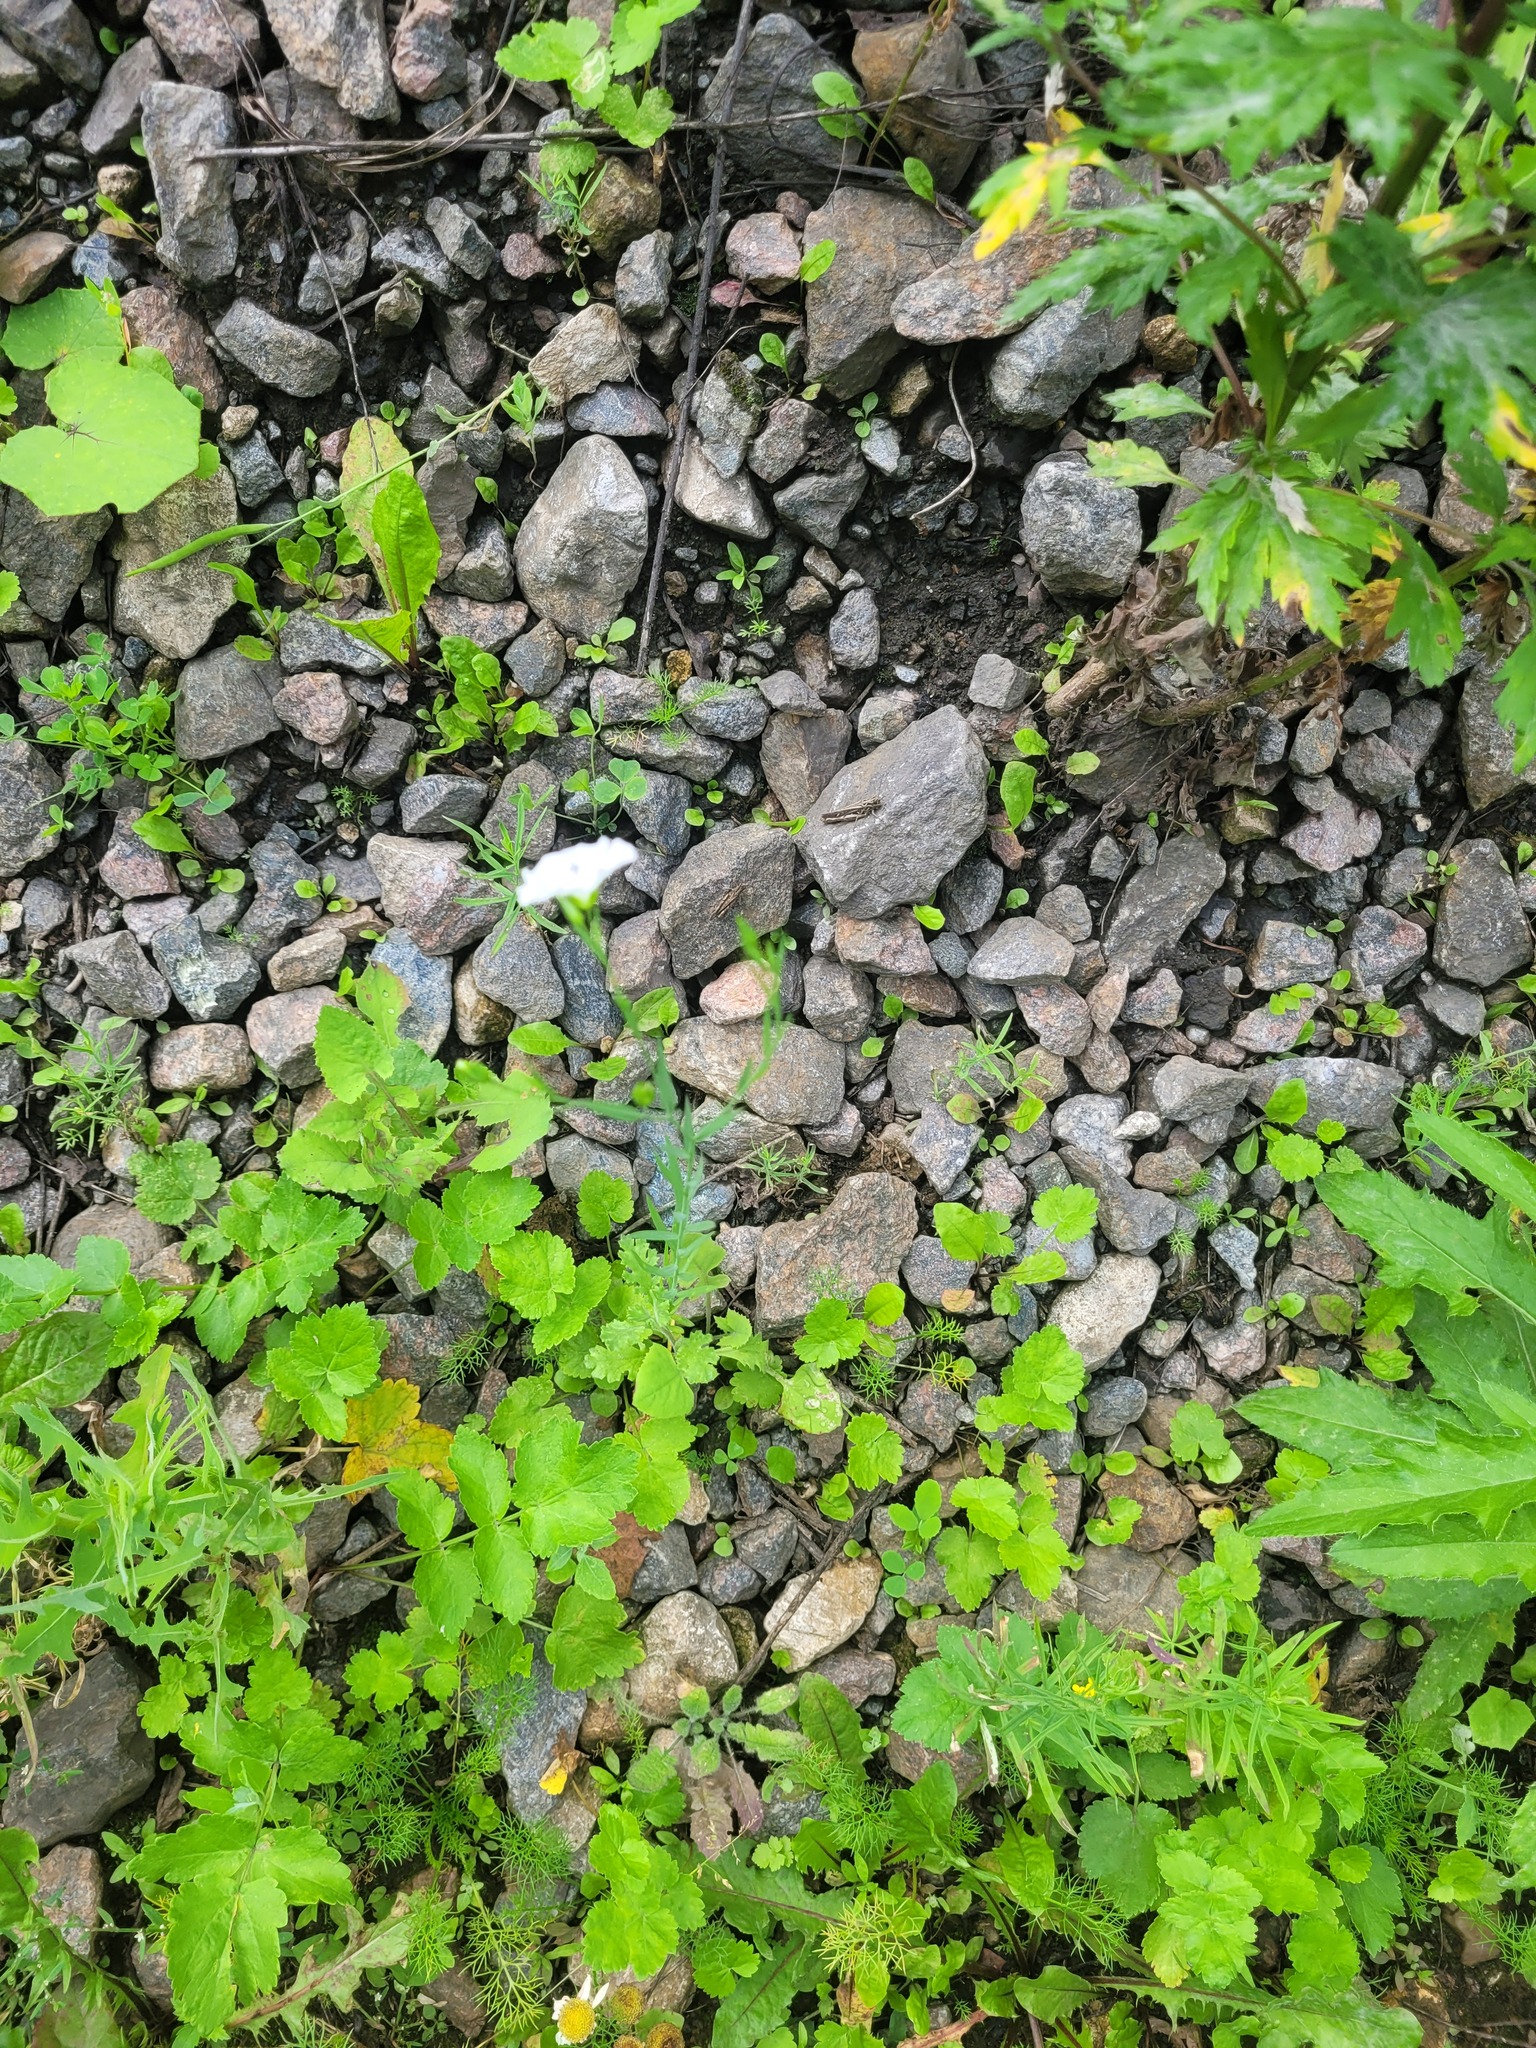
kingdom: Plantae
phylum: Tracheophyta
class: Magnoliopsida
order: Malpighiales
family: Linaceae
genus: Linum
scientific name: Linum usitatissimum
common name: Flax
